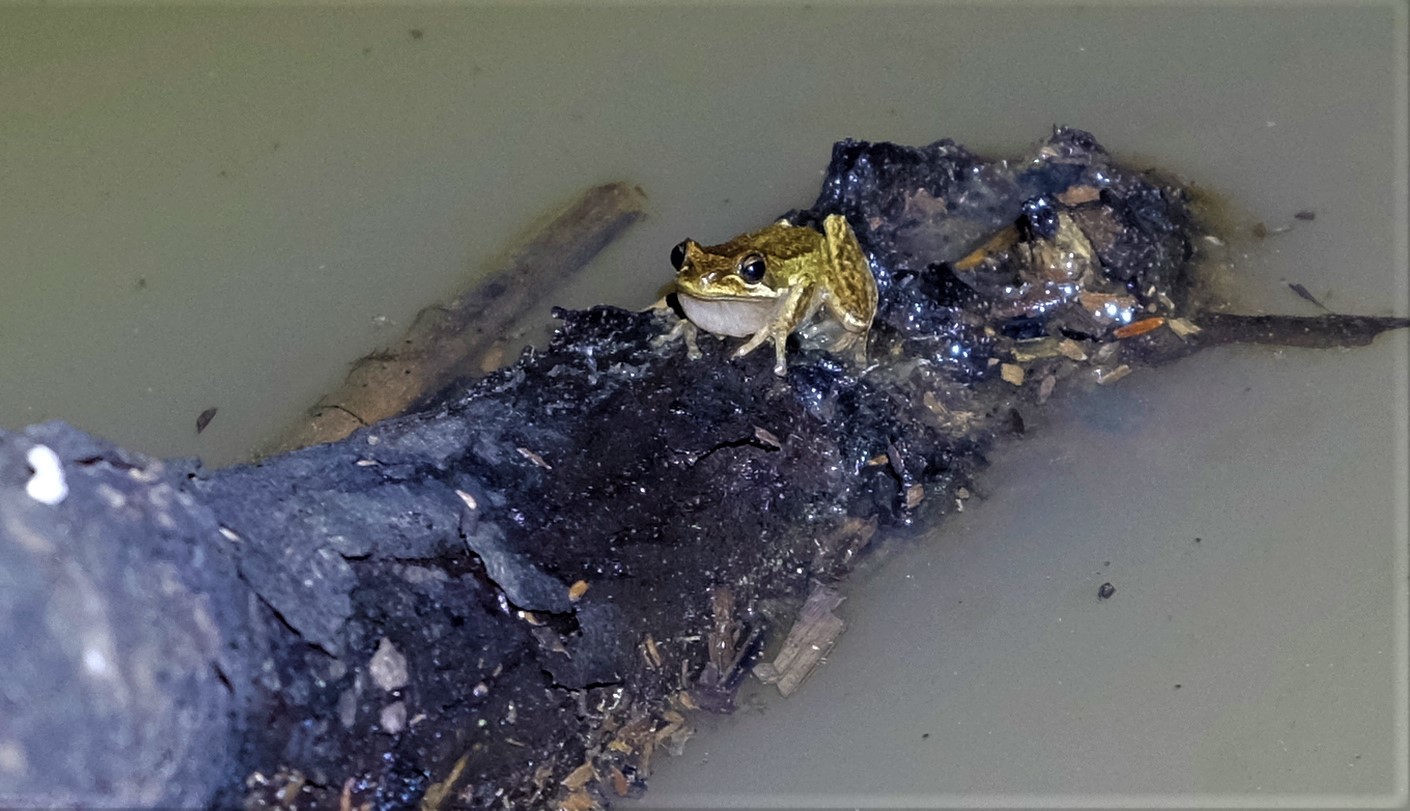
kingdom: Animalia
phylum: Chordata
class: Amphibia
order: Anura
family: Pelodryadidae
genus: Litoria
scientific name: Litoria ewingii
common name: Southern brown tree frog
